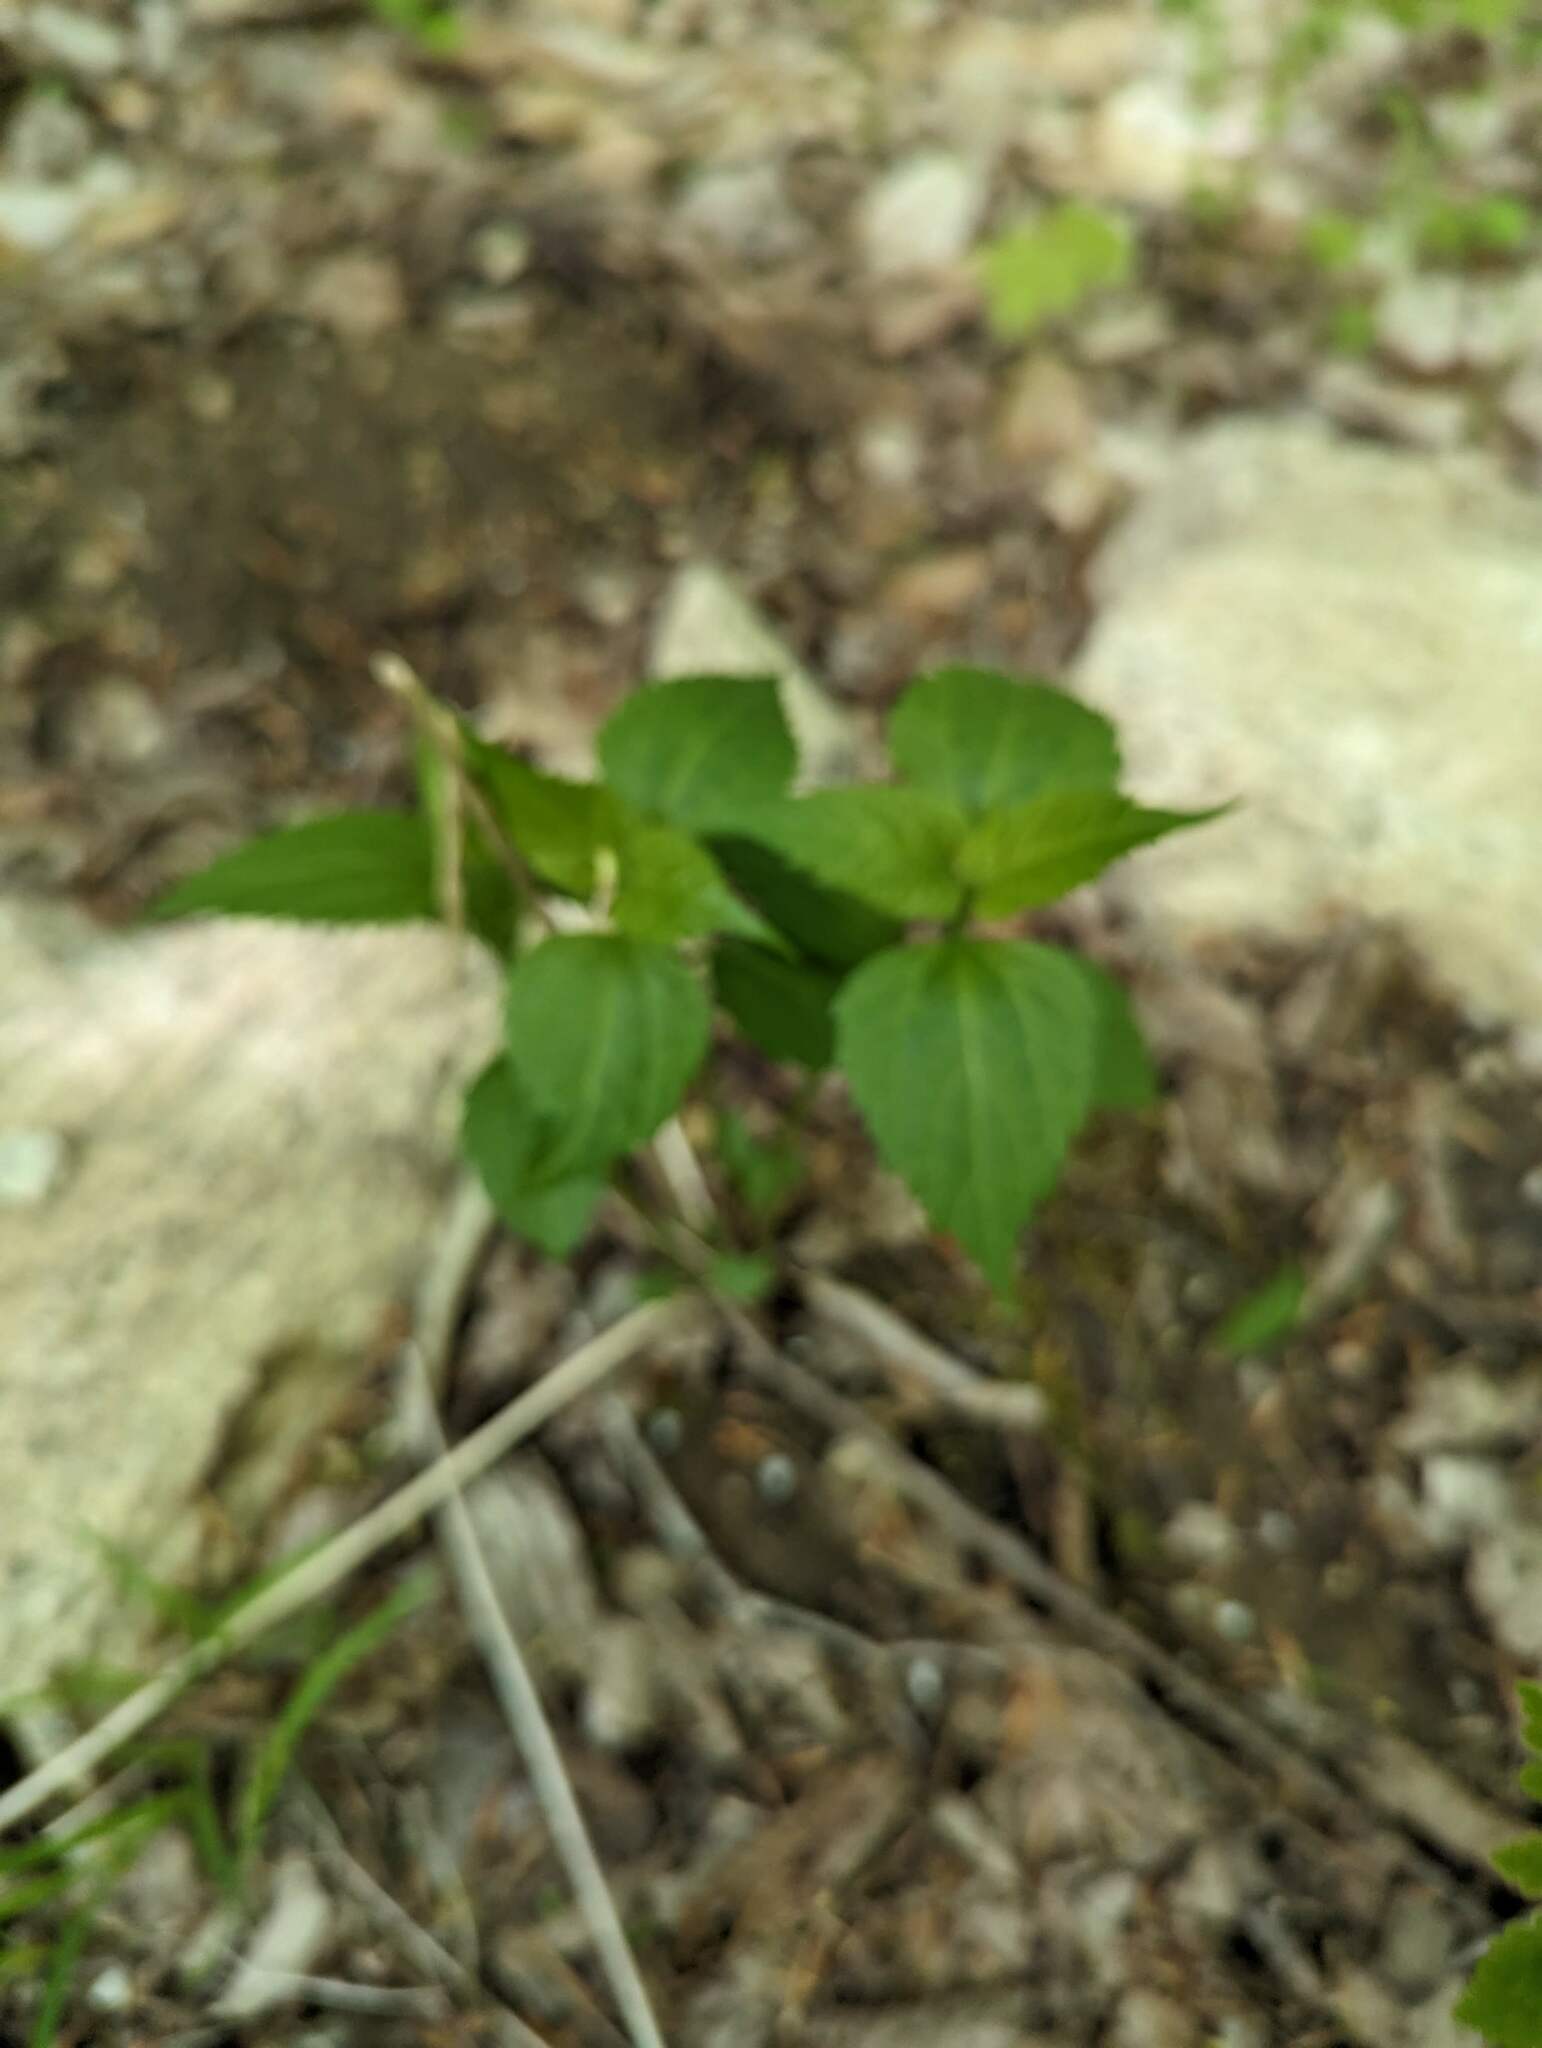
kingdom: Plantae
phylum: Tracheophyta
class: Magnoliopsida
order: Asterales
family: Asteraceae
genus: Ageratina
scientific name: Ageratina altissima
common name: White snakeroot
